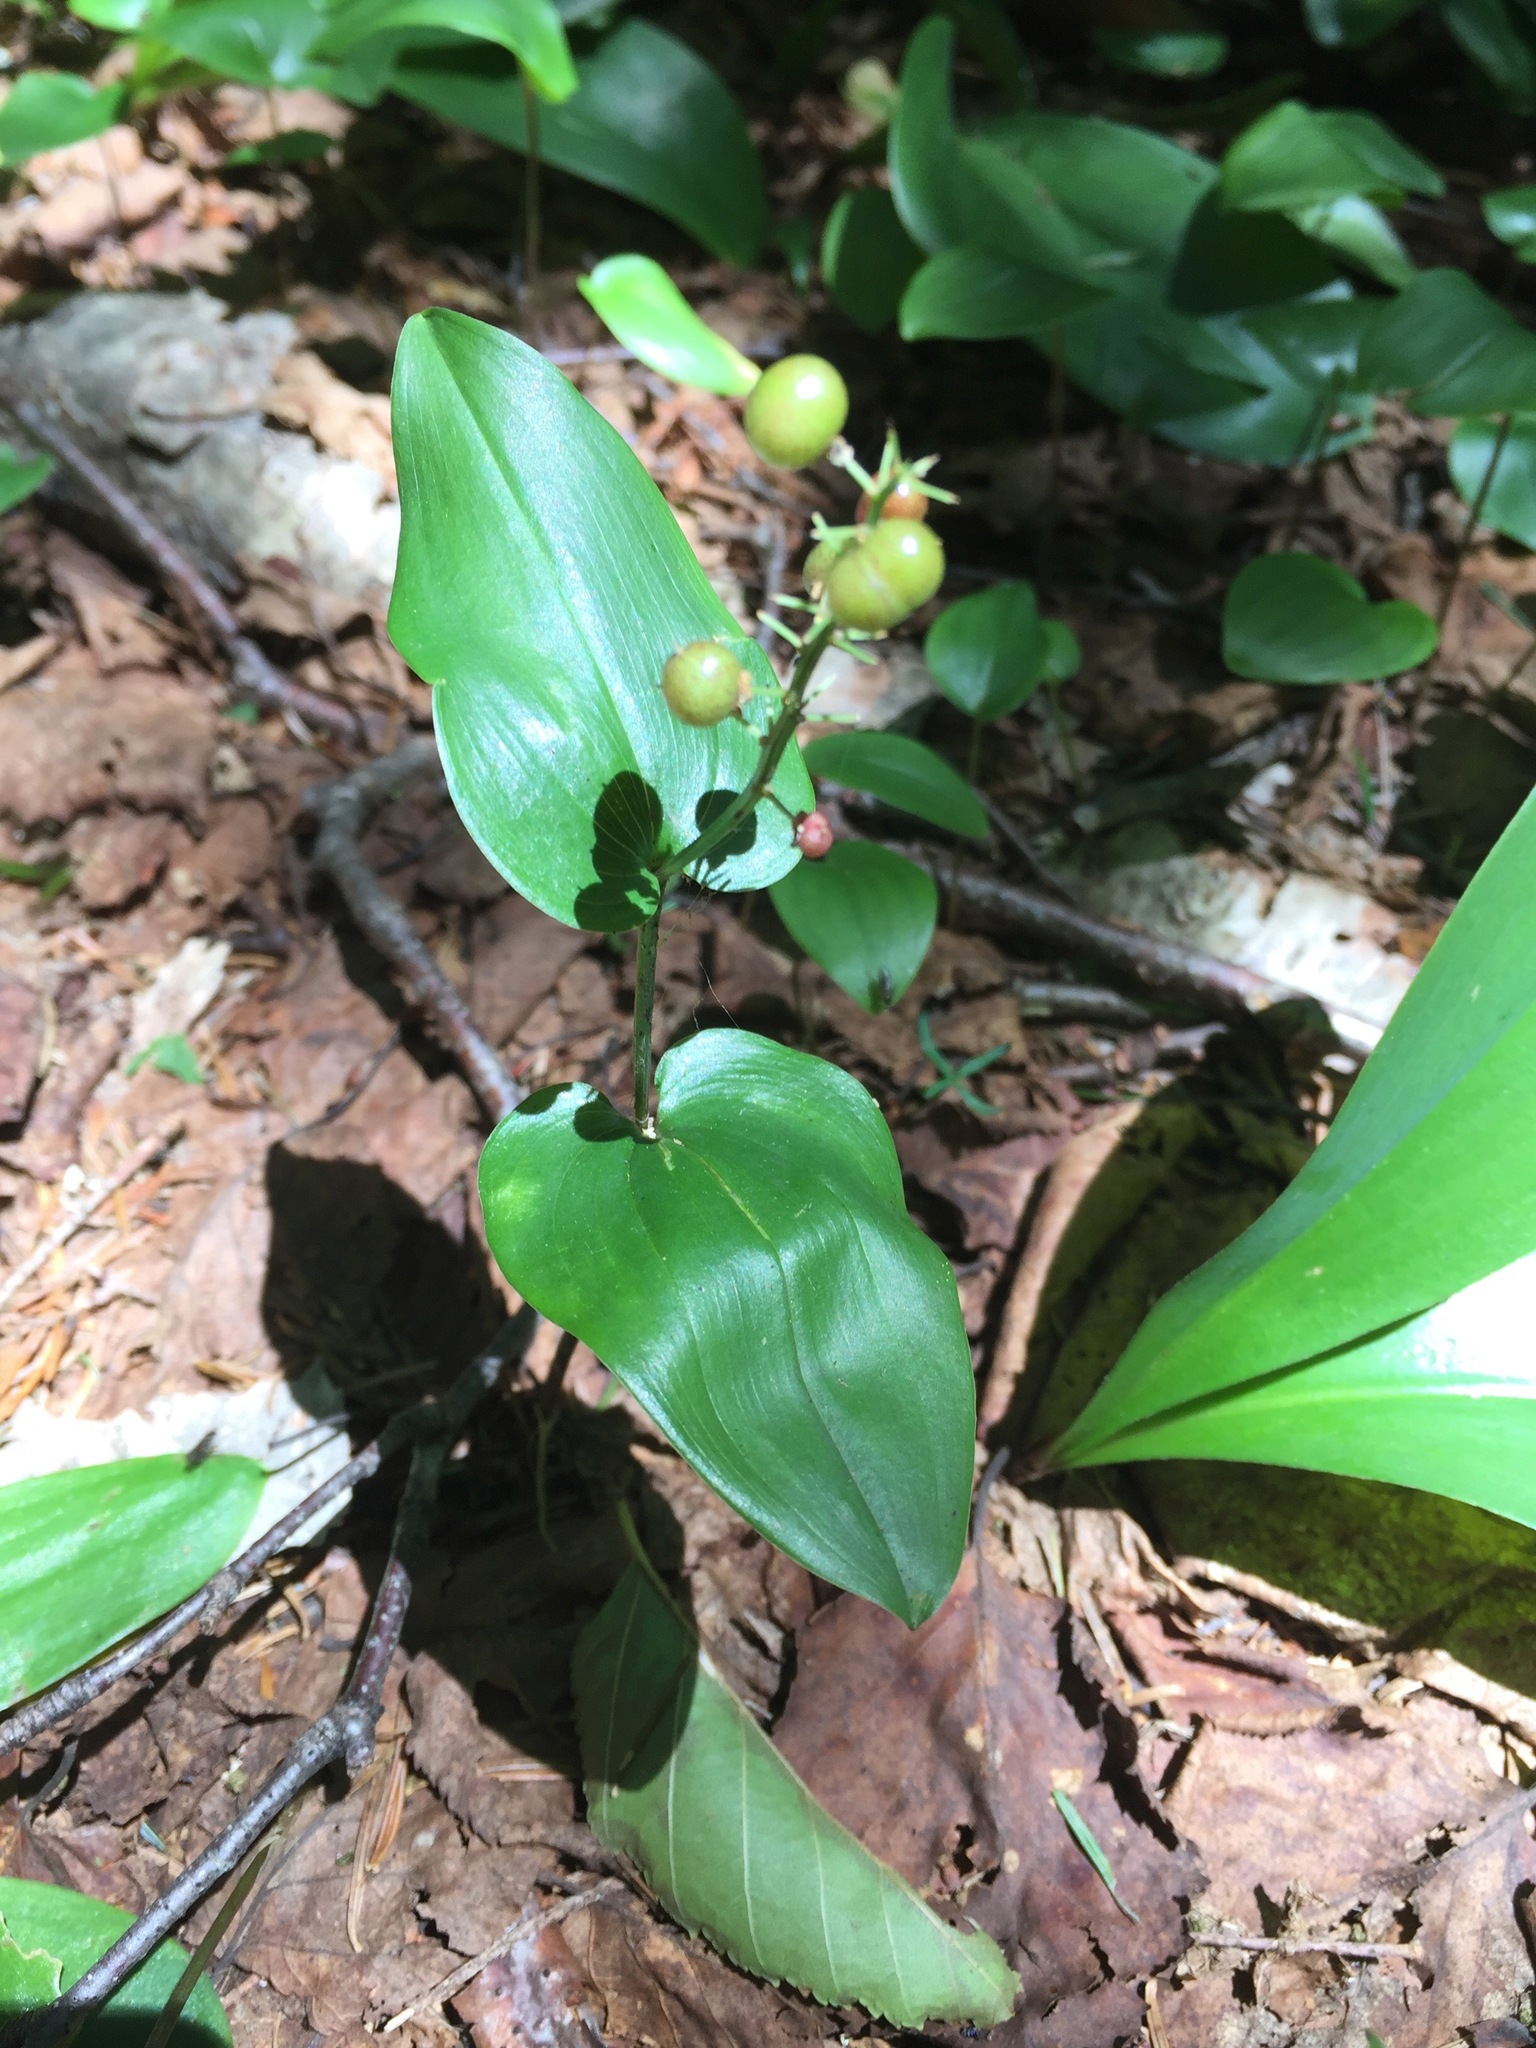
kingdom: Plantae
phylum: Tracheophyta
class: Liliopsida
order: Asparagales
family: Asparagaceae
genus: Maianthemum
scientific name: Maianthemum canadense
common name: False lily-of-the-valley
